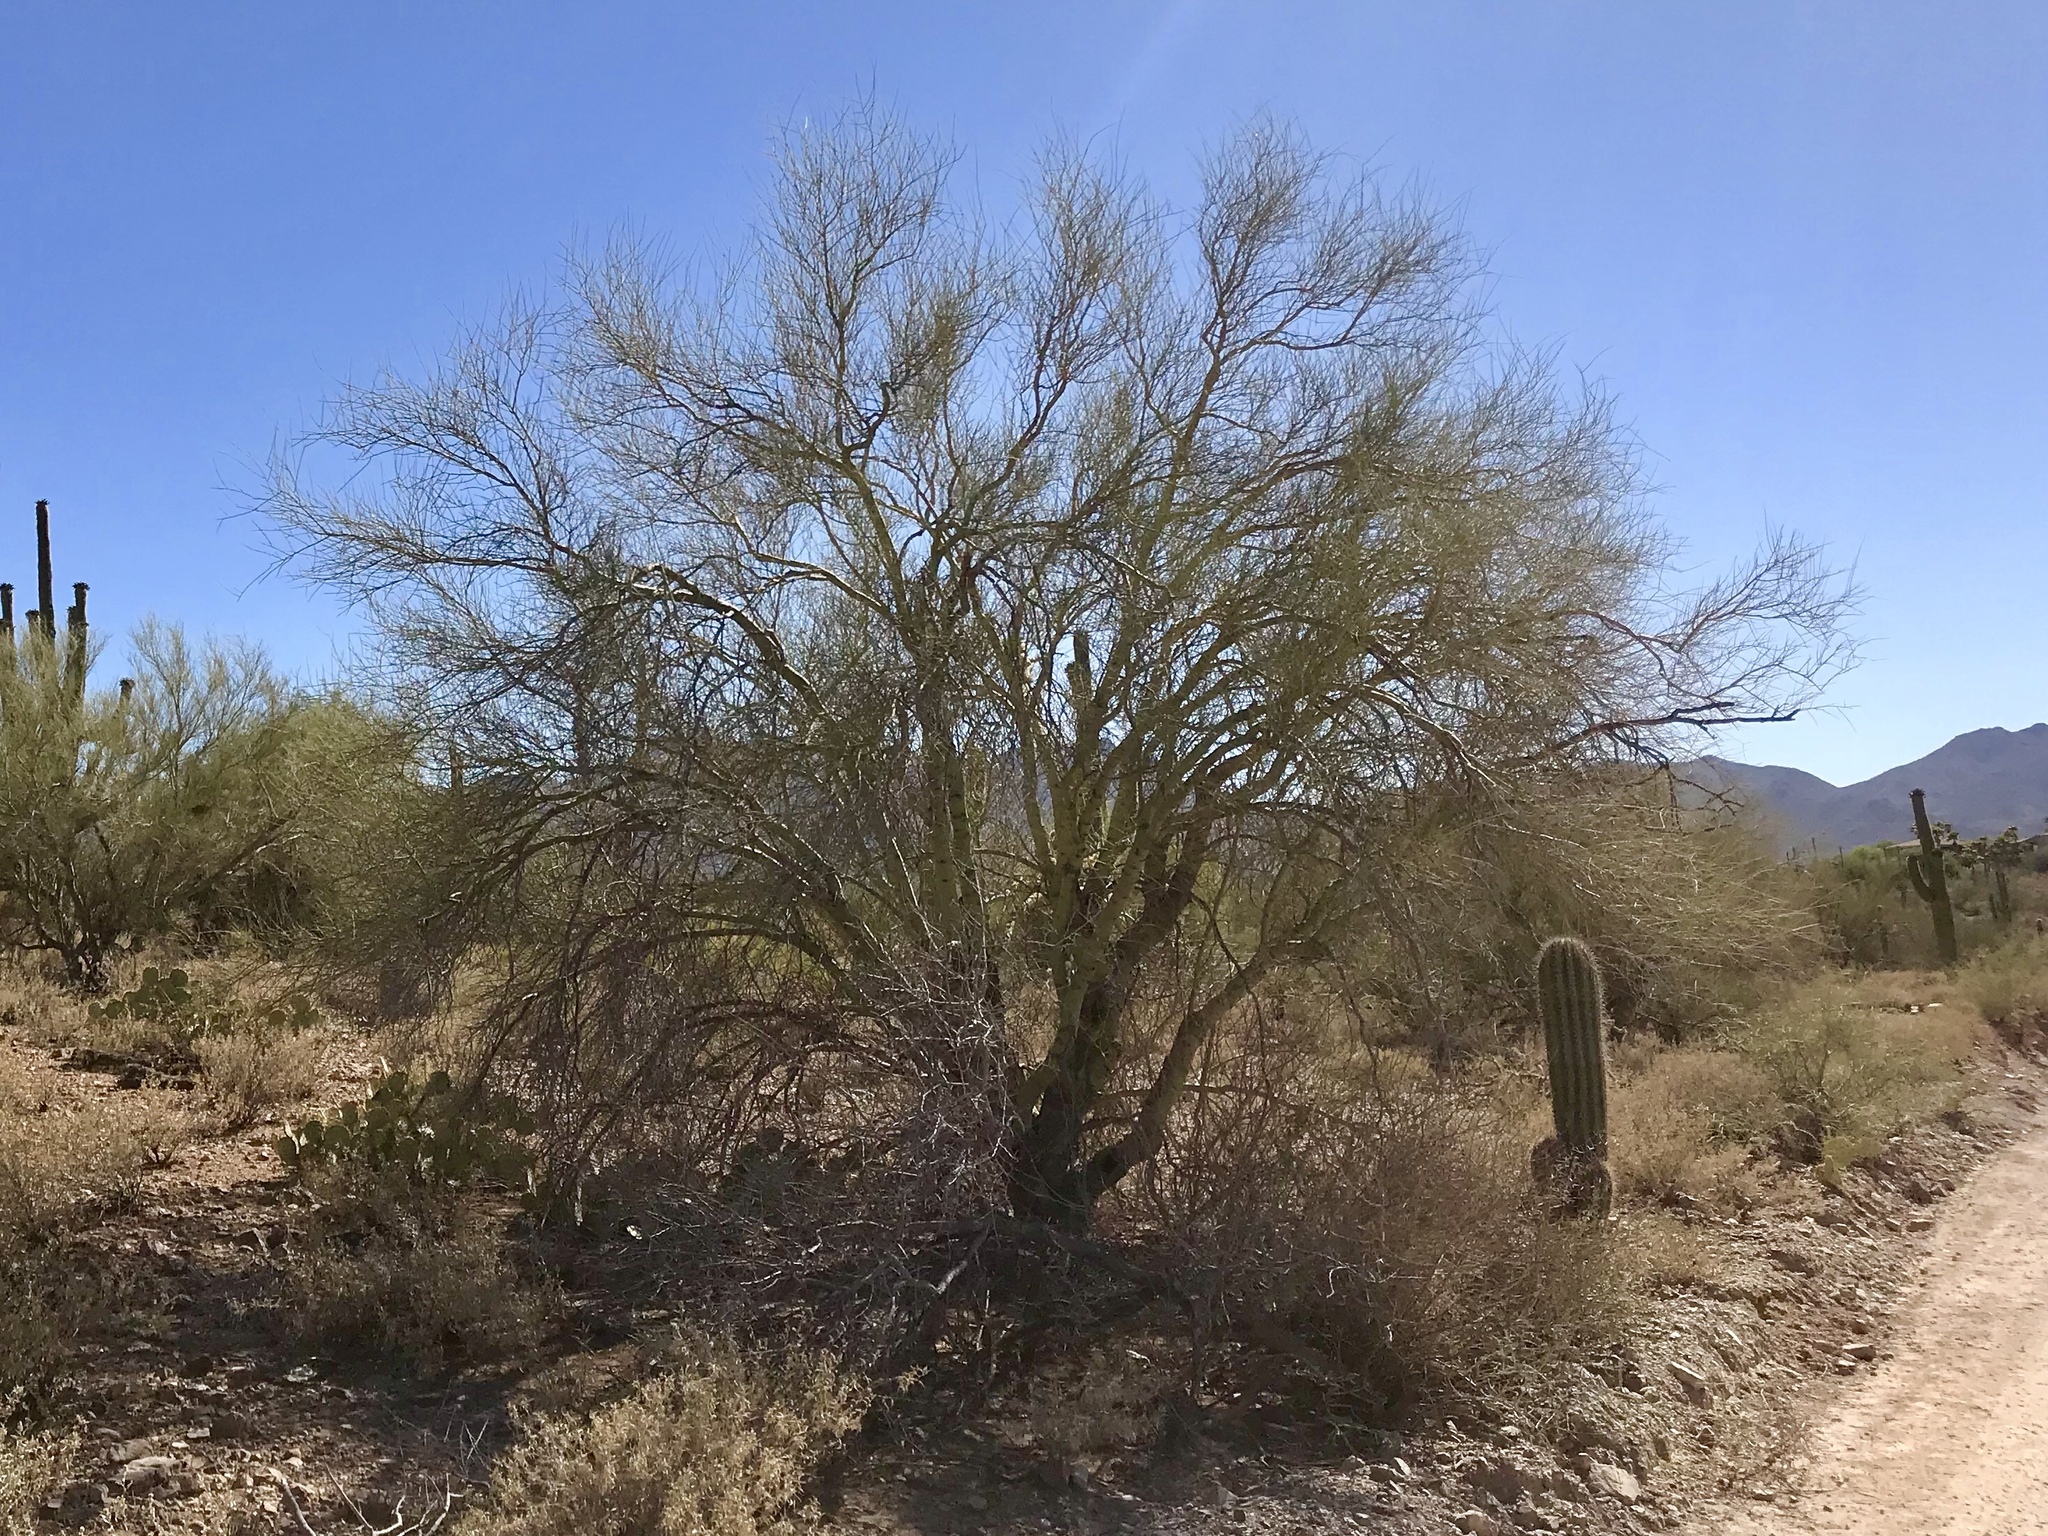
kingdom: Plantae
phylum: Tracheophyta
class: Magnoliopsida
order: Fabales
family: Fabaceae
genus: Parkinsonia
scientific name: Parkinsonia microphylla
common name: Yellow paloverde
